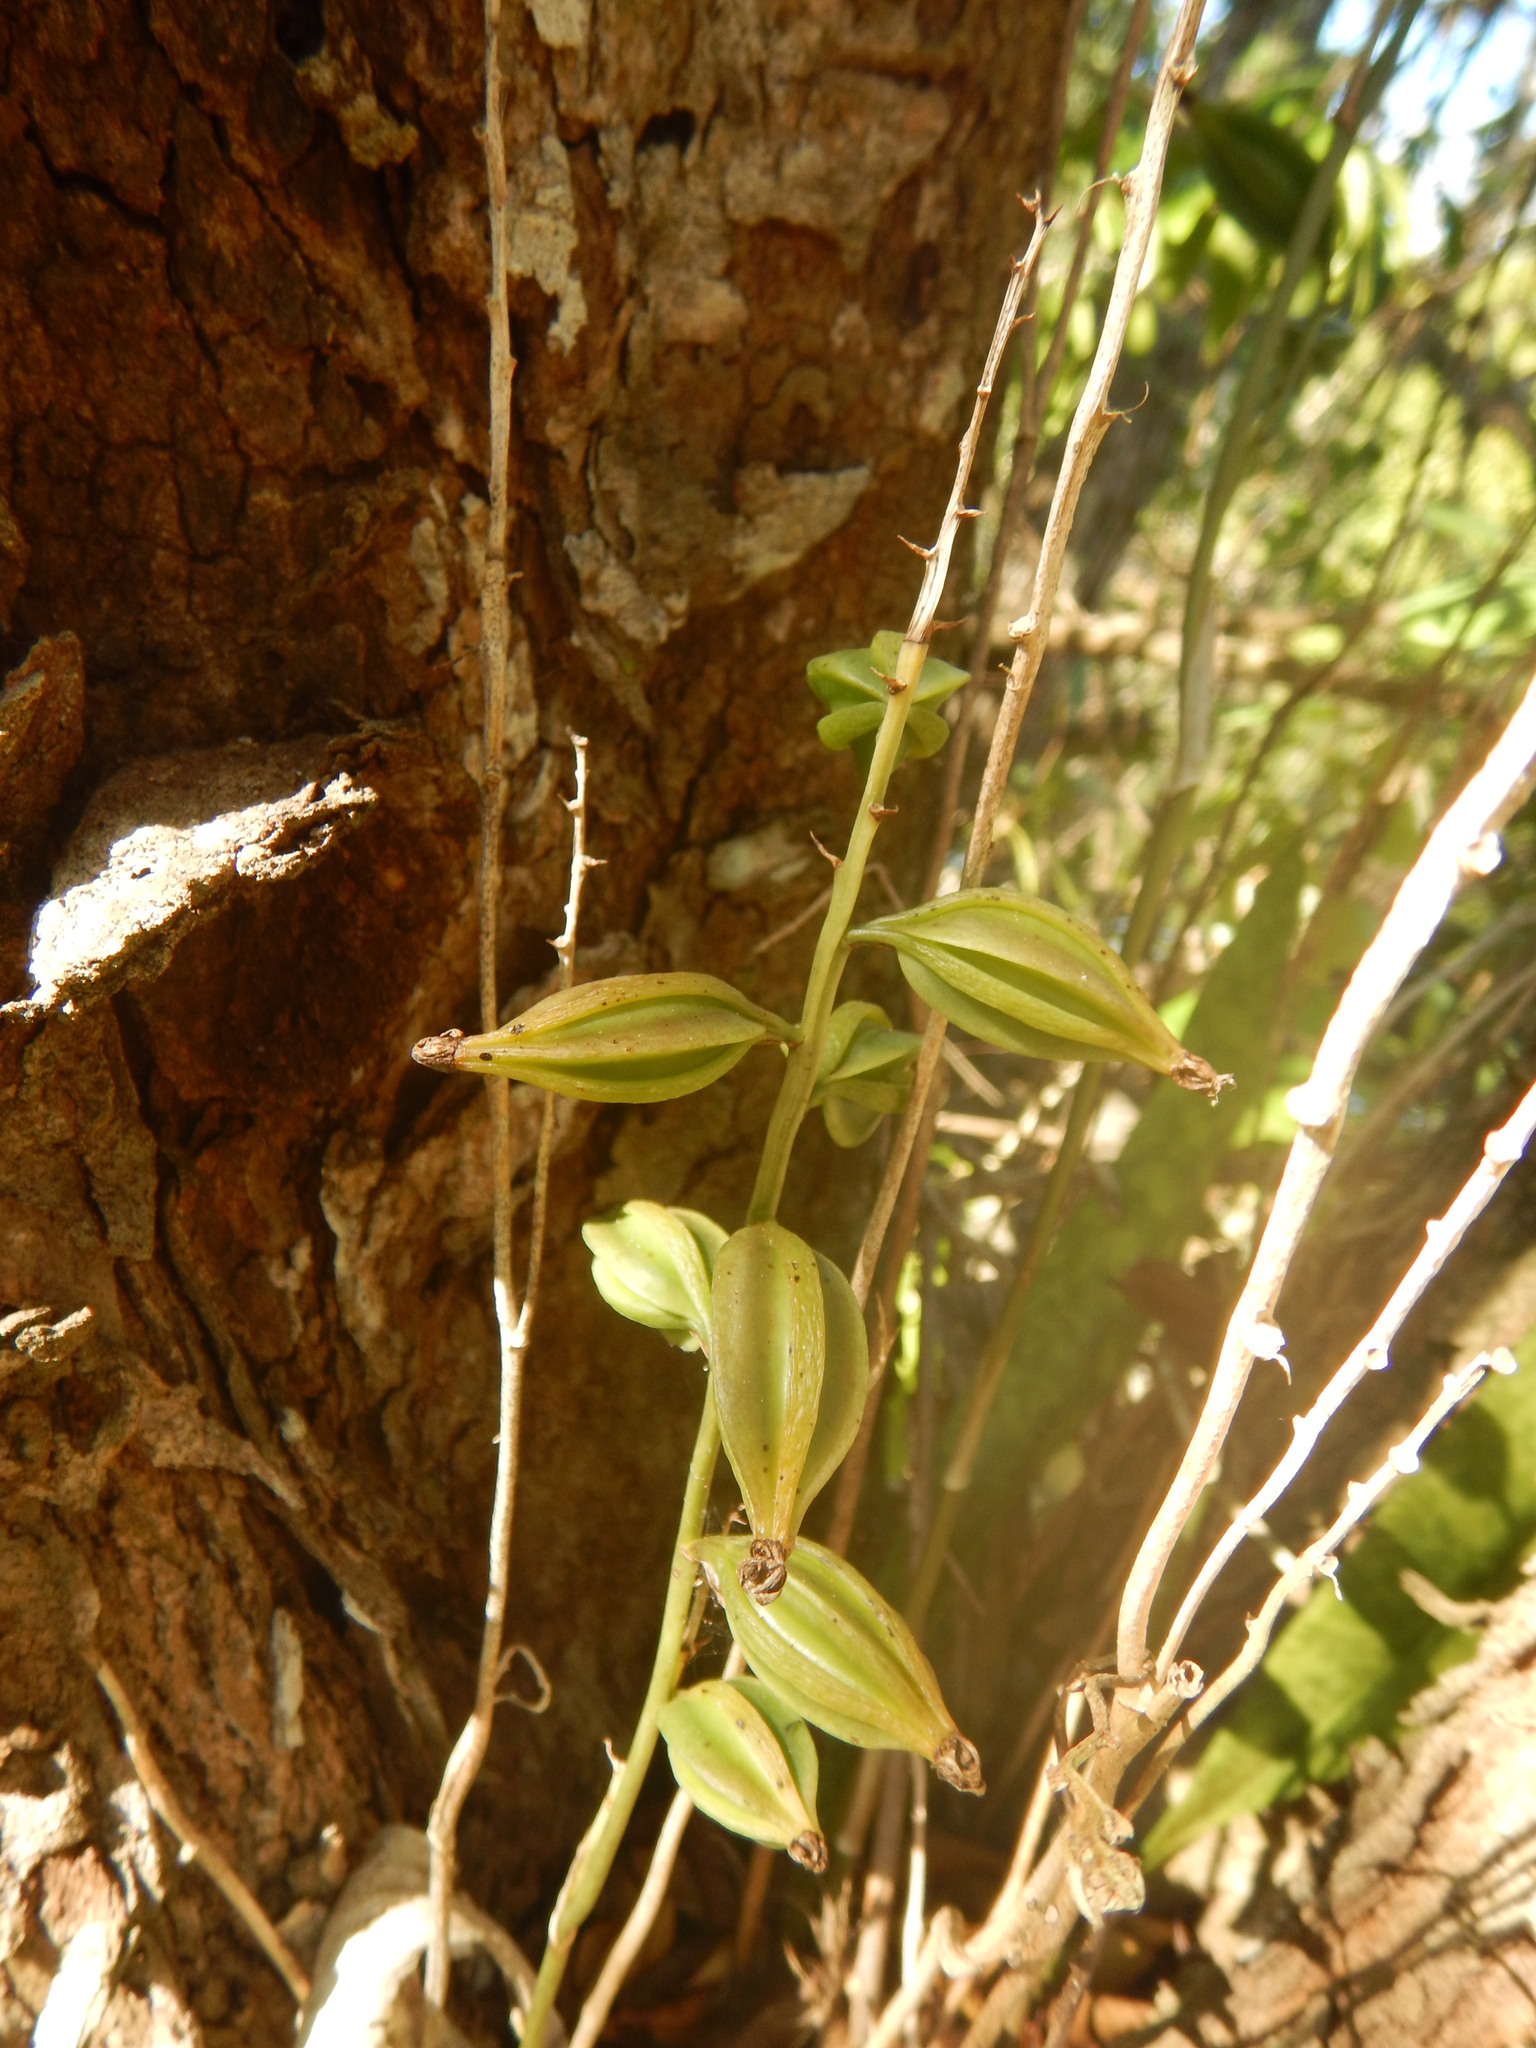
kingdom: Plantae
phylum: Tracheophyta
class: Liliopsida
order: Asparagales
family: Orchidaceae
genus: Eulophia
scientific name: Eulophia maculata
